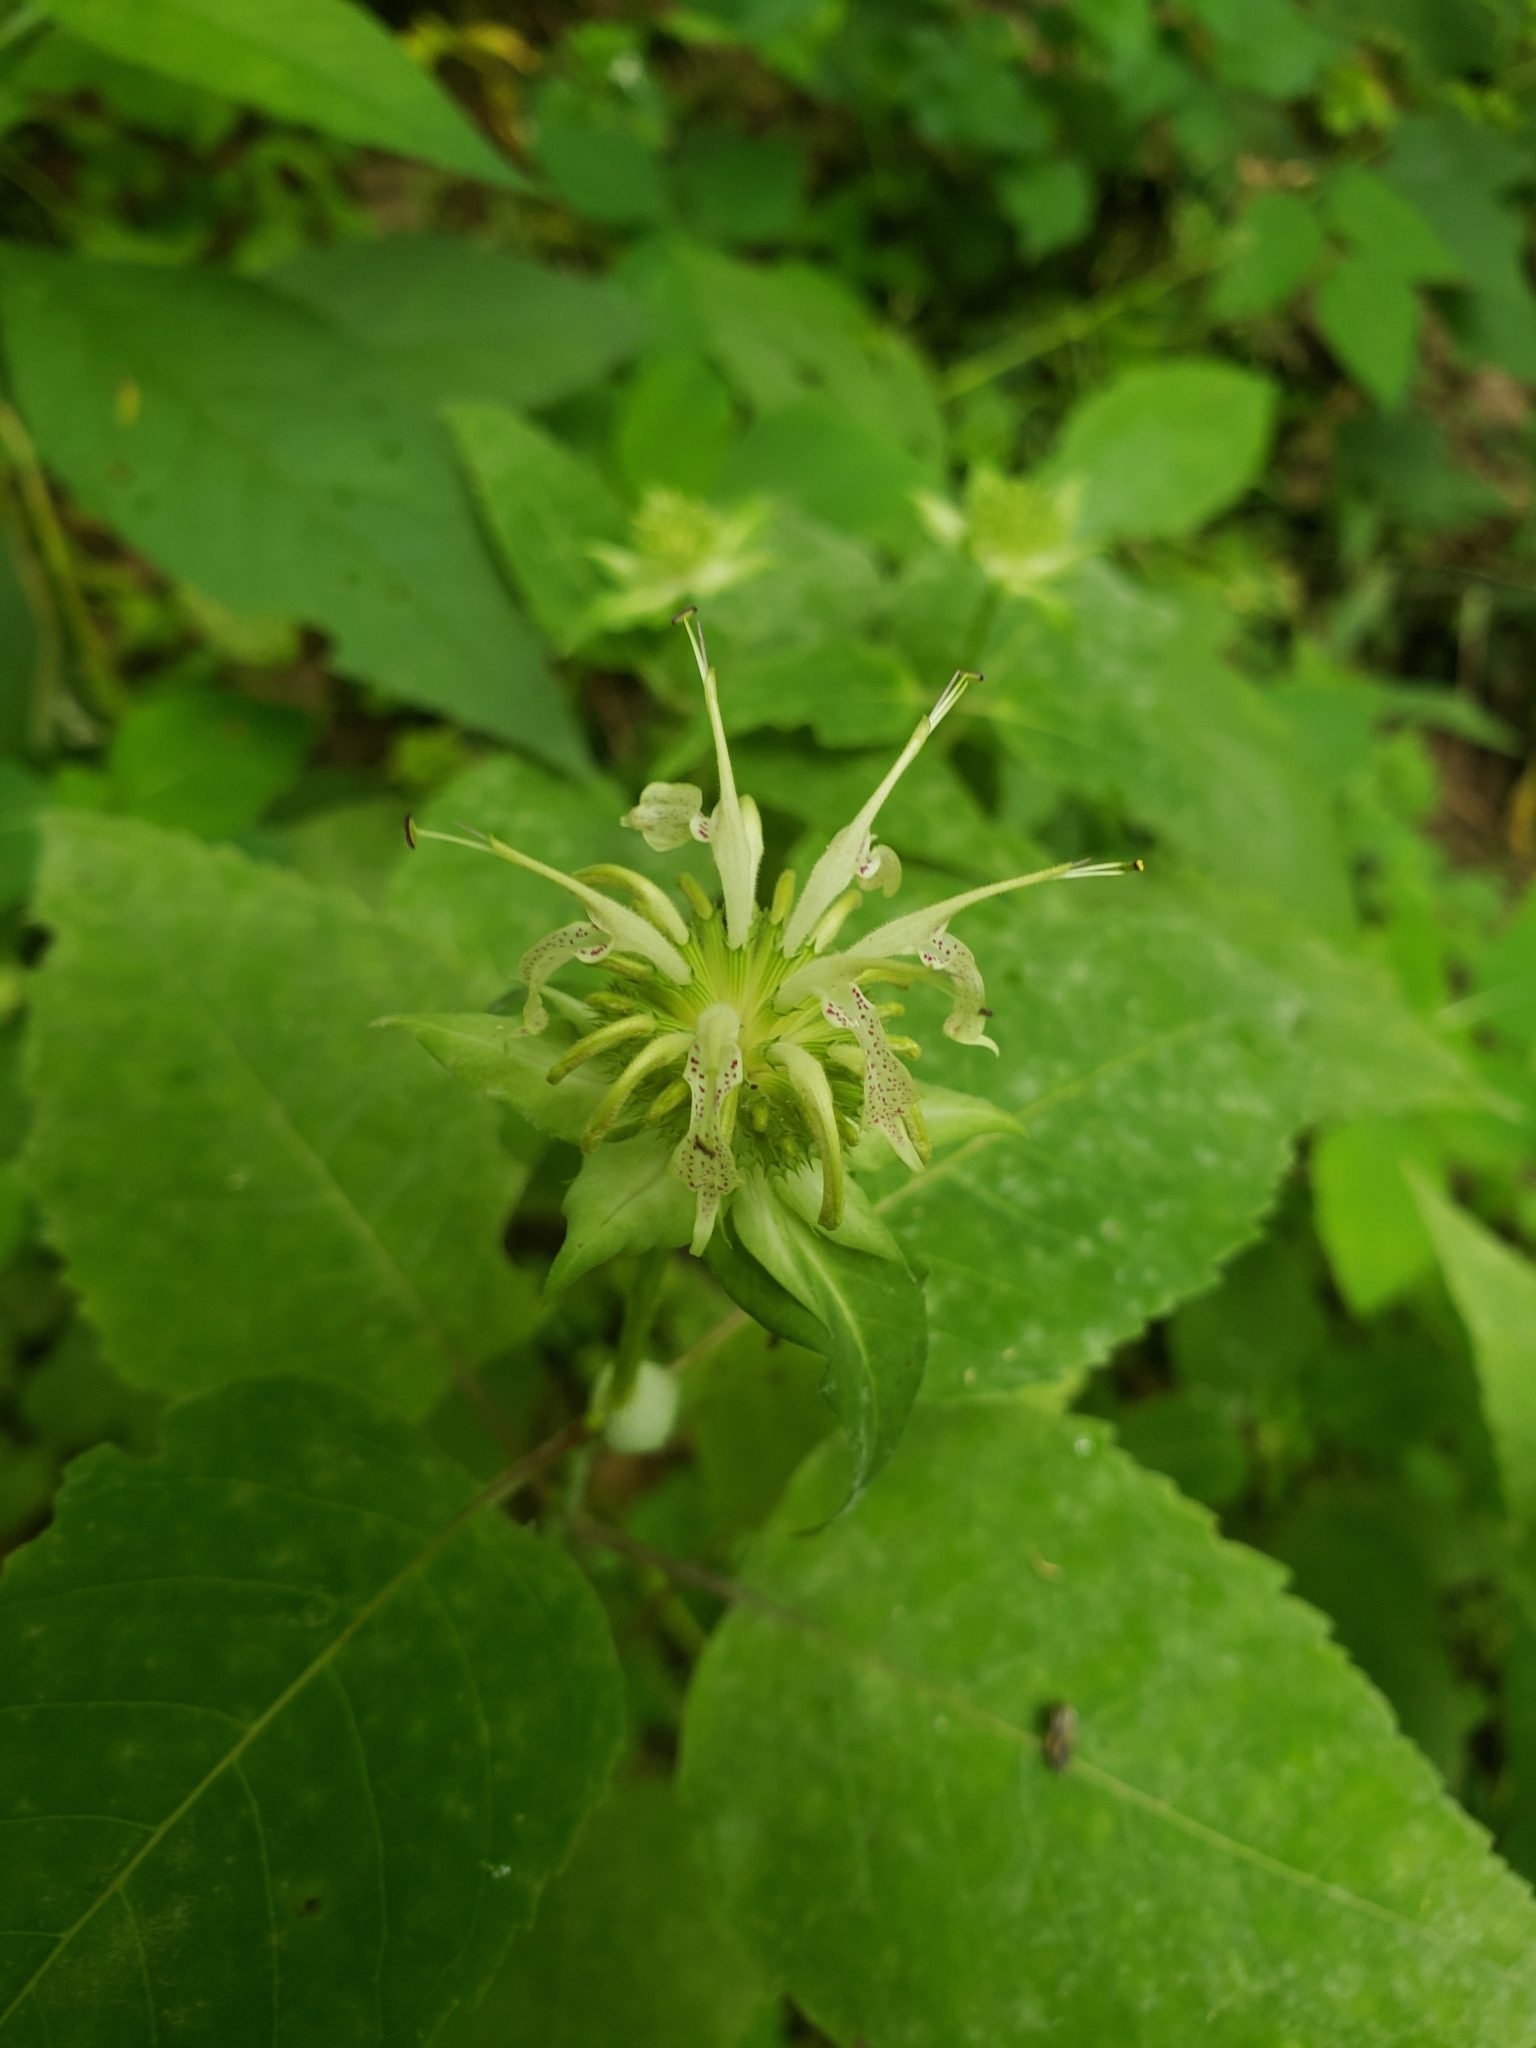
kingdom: Plantae
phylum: Tracheophyta
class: Magnoliopsida
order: Lamiales
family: Lamiaceae
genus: Monarda
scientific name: Monarda clinopodia
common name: Basil beebalm
